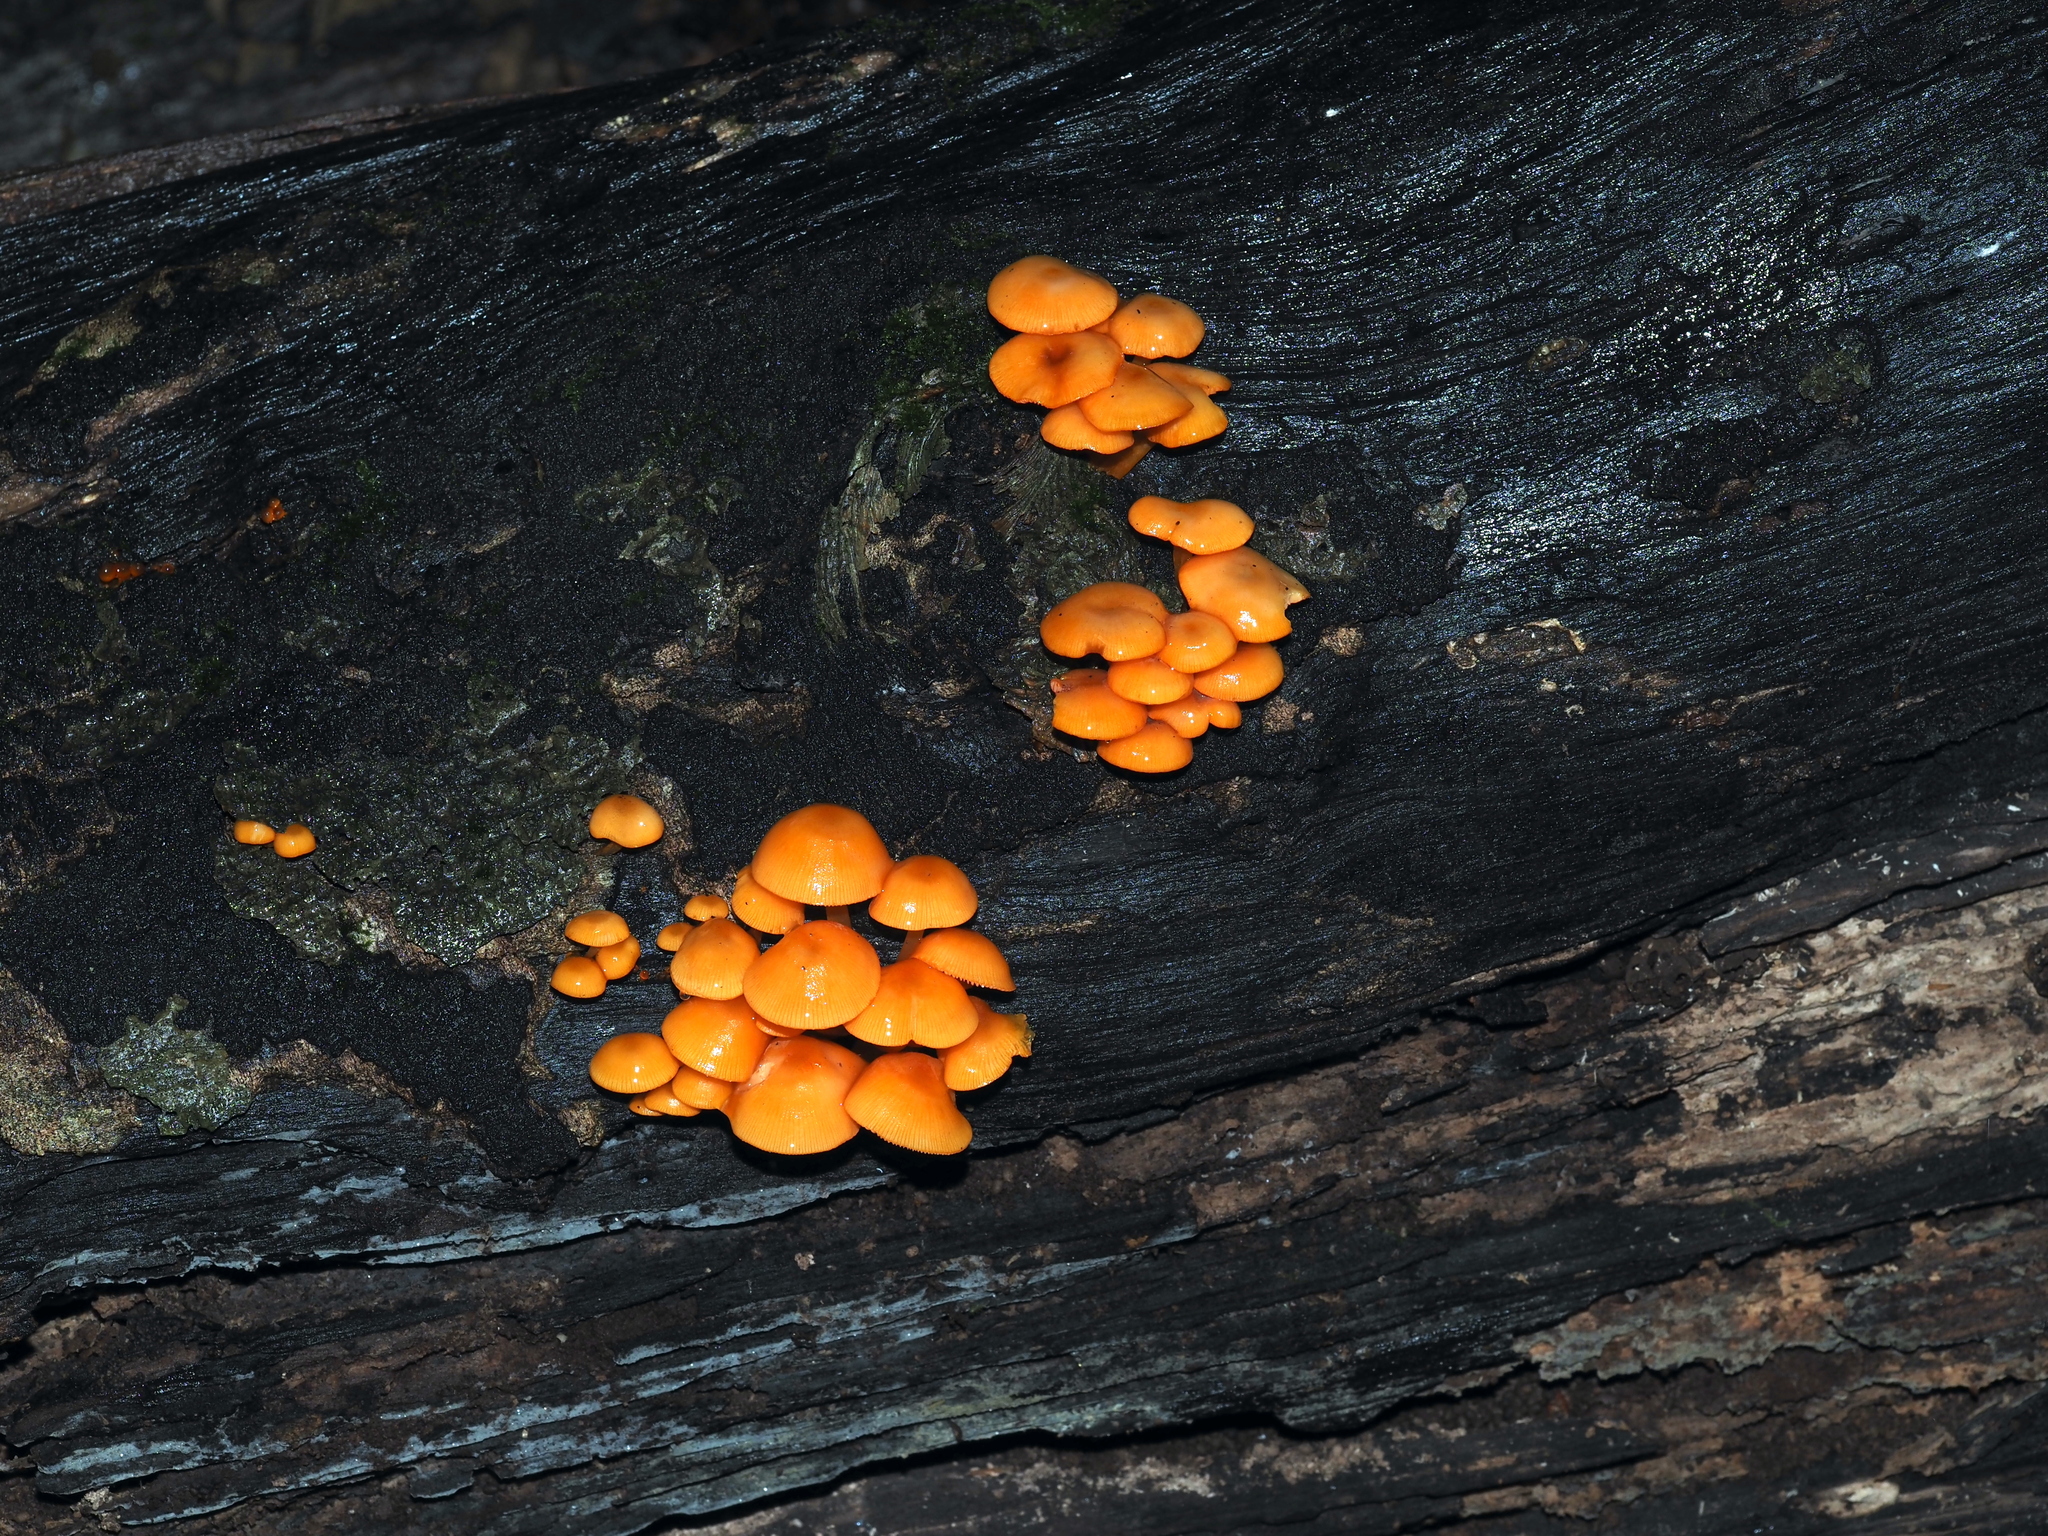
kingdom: Fungi
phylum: Basidiomycota
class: Agaricomycetes
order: Agaricales
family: Mycenaceae
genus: Mycena
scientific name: Mycena leaiana
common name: Orange mycena
